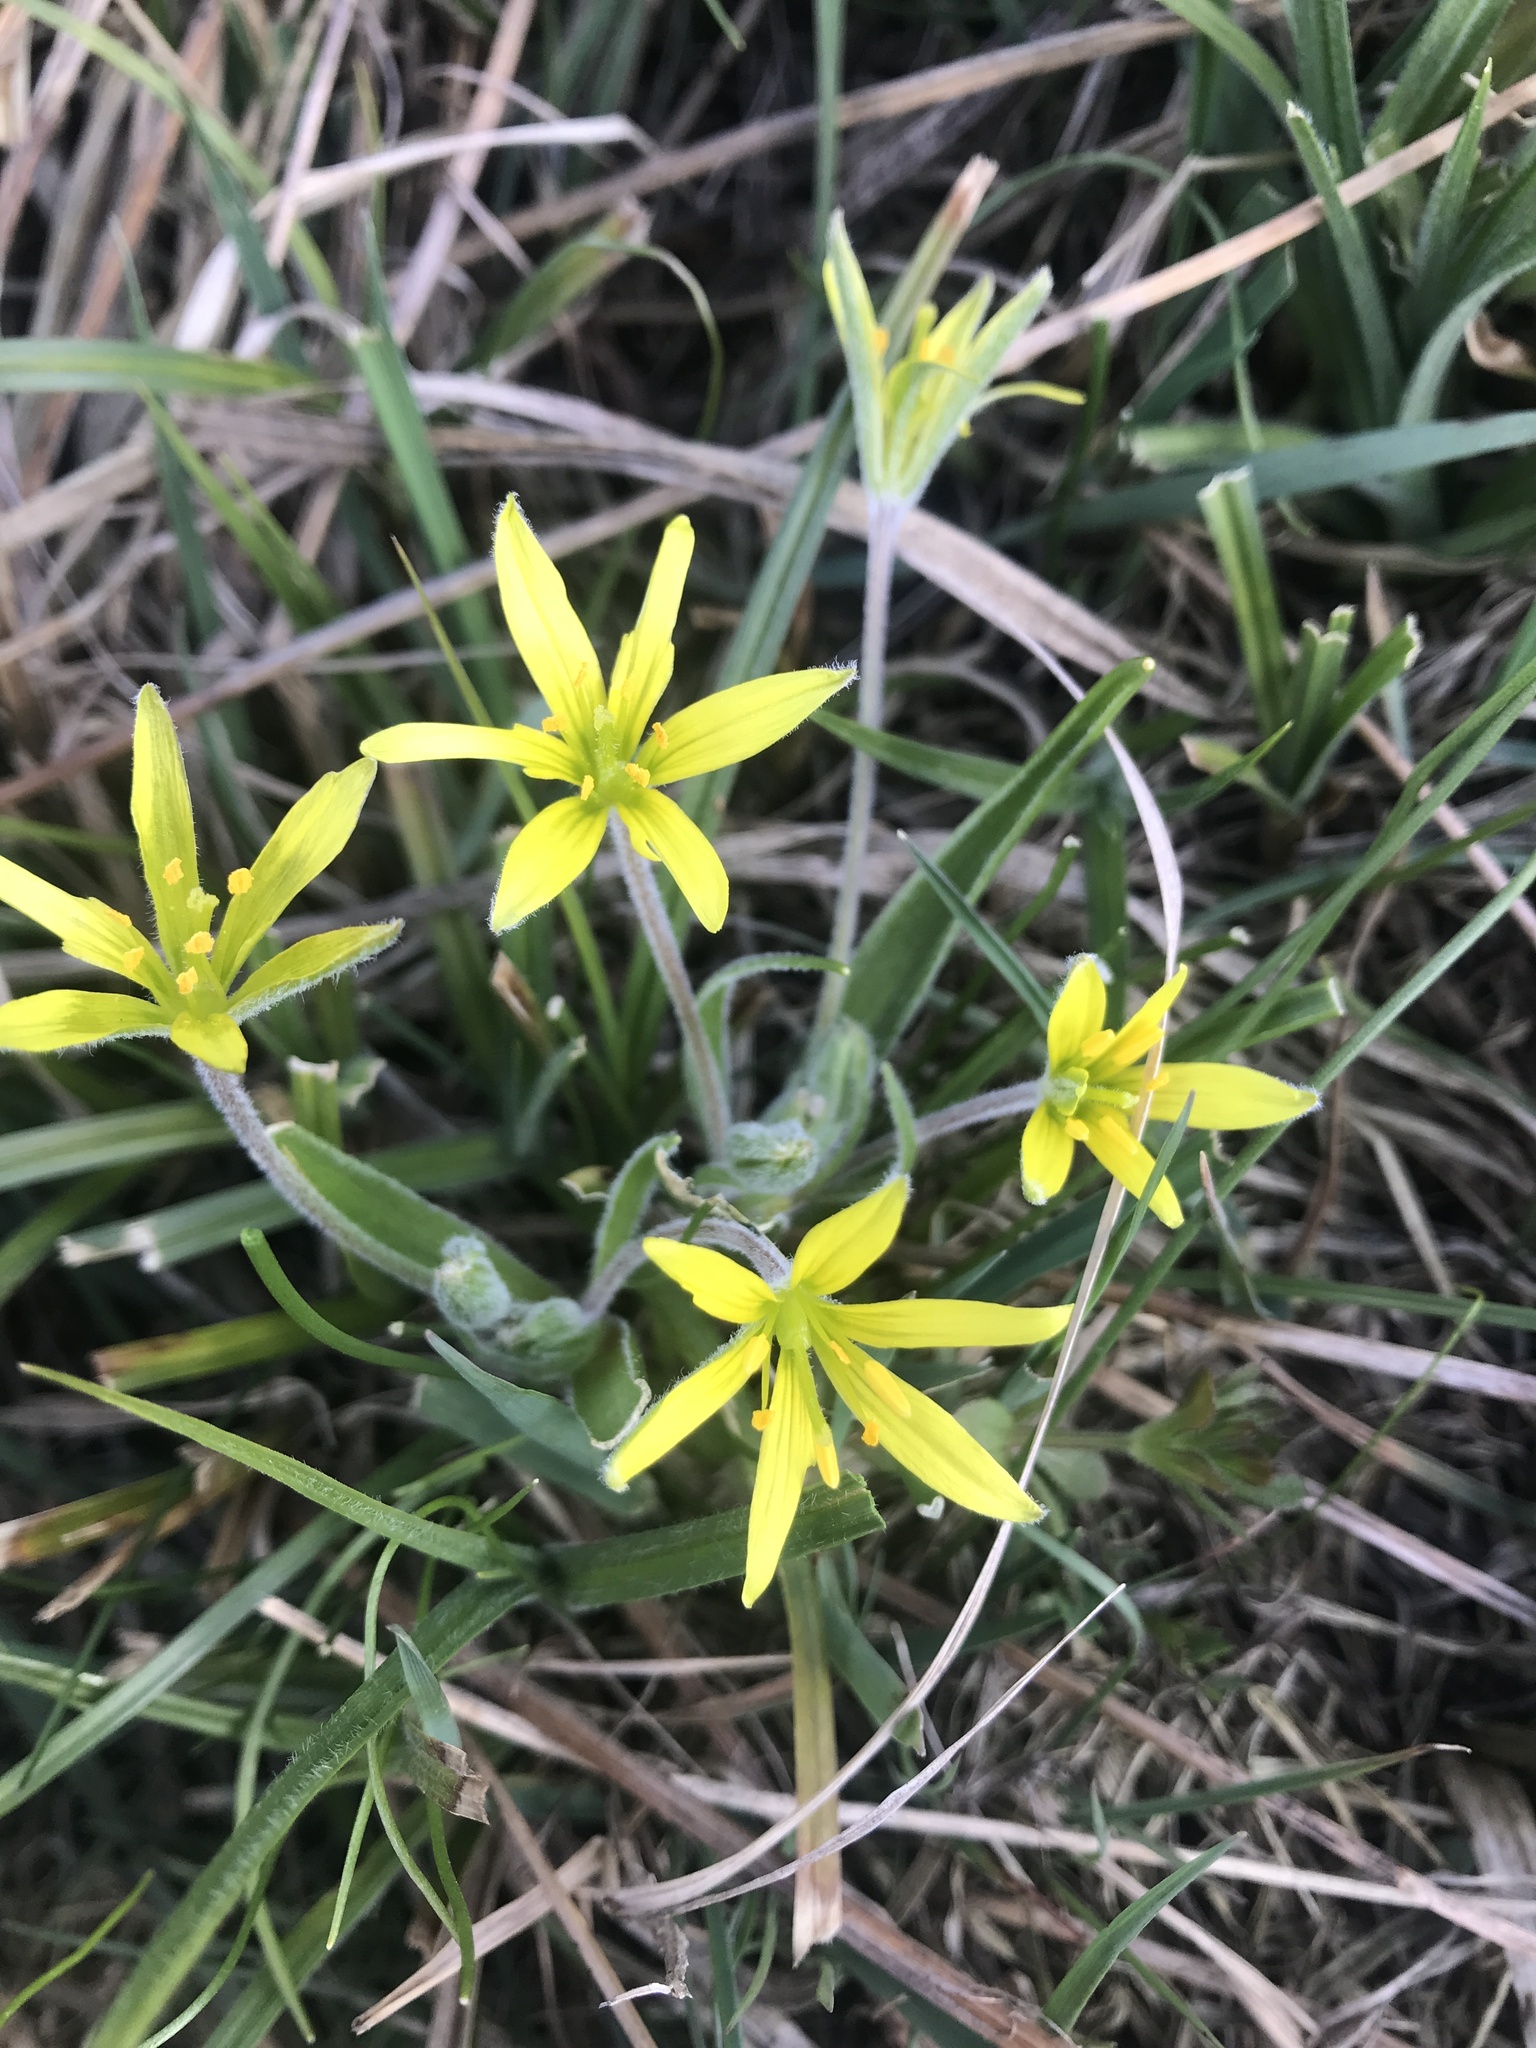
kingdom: Plantae
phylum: Tracheophyta
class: Liliopsida
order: Liliales
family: Liliaceae
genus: Gagea
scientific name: Gagea villosa
